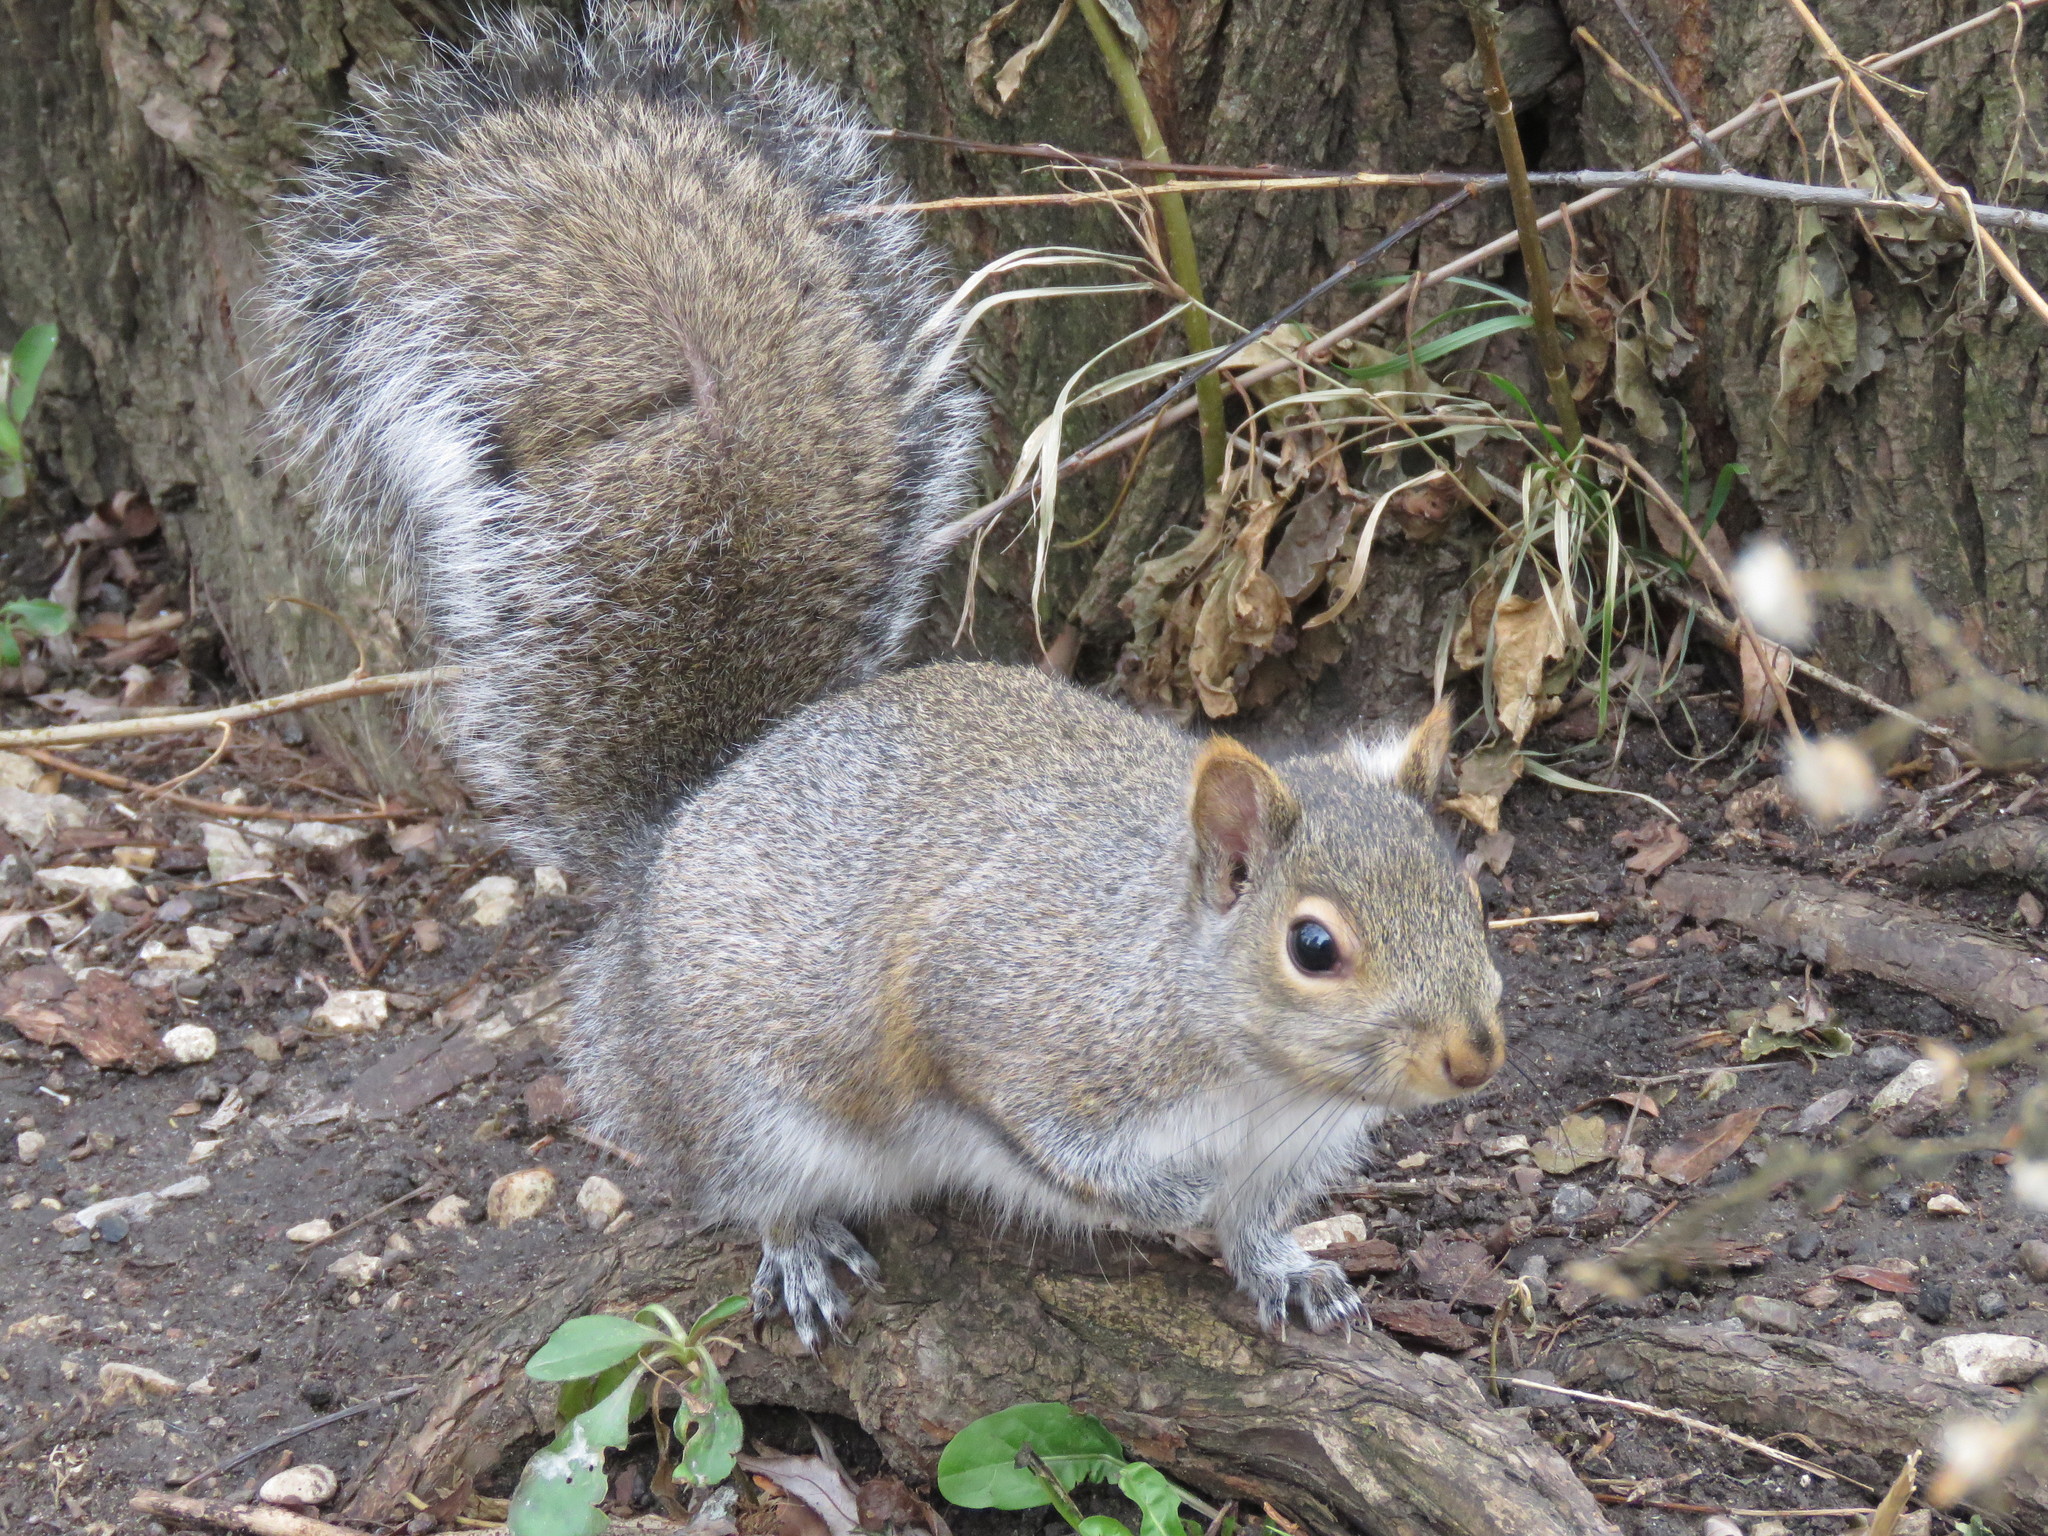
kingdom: Animalia
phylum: Chordata
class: Mammalia
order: Rodentia
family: Sciuridae
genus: Sciurus
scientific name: Sciurus carolinensis
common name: Eastern gray squirrel
